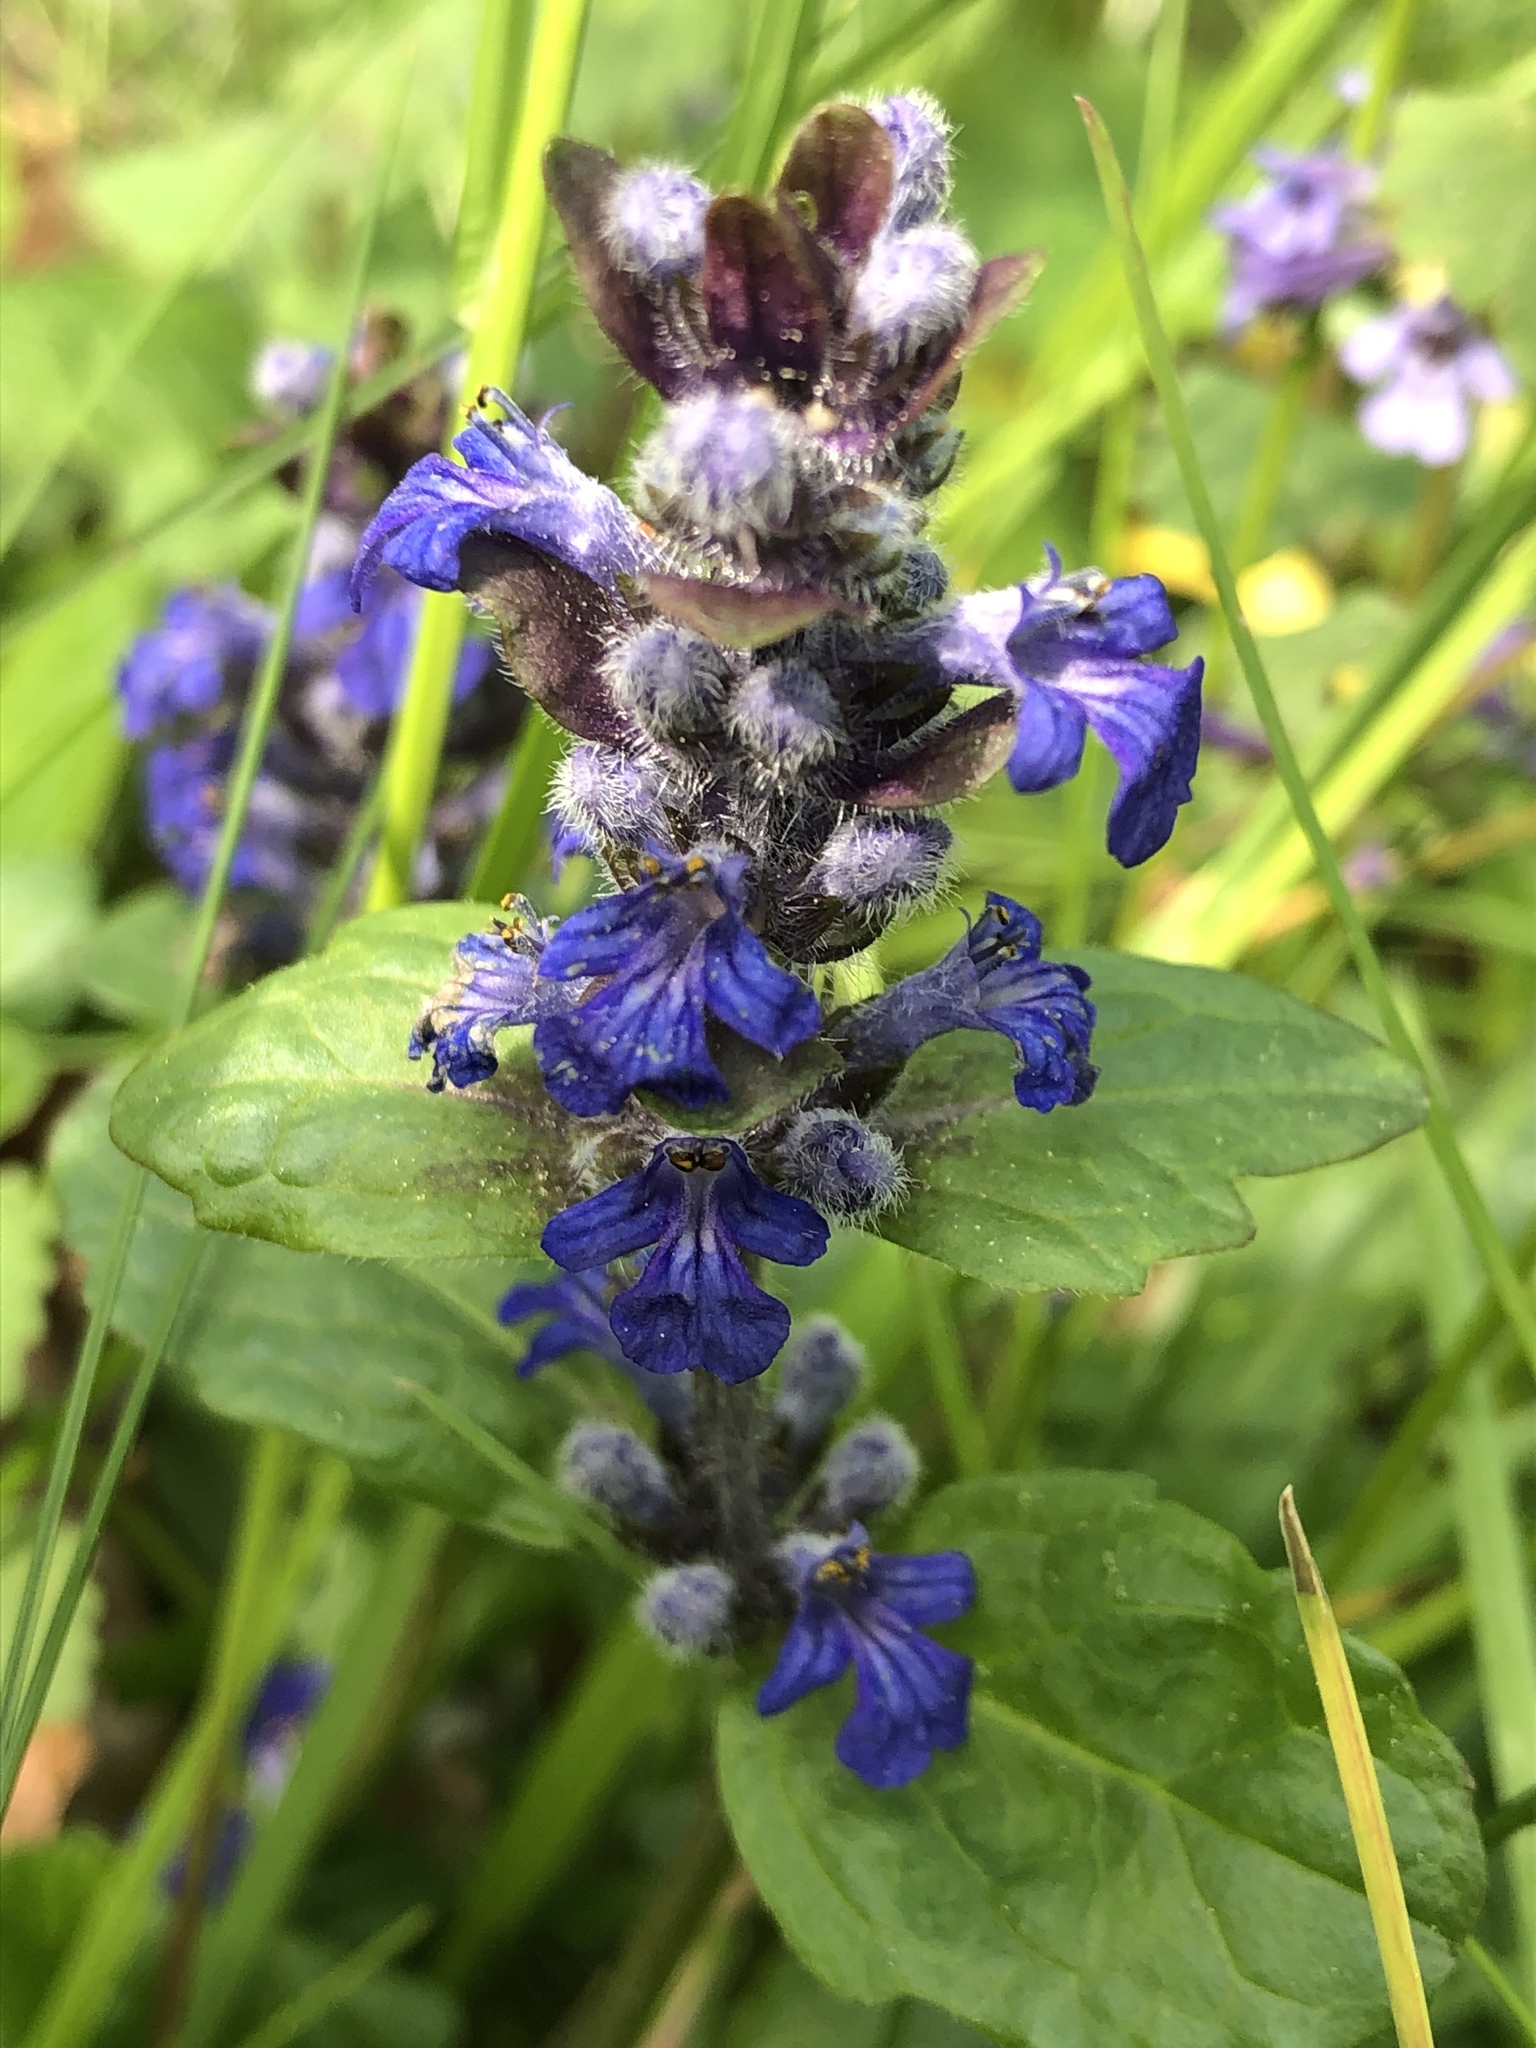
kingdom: Plantae
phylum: Tracheophyta
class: Magnoliopsida
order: Lamiales
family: Lamiaceae
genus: Ajuga
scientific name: Ajuga reptans
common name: Bugle
